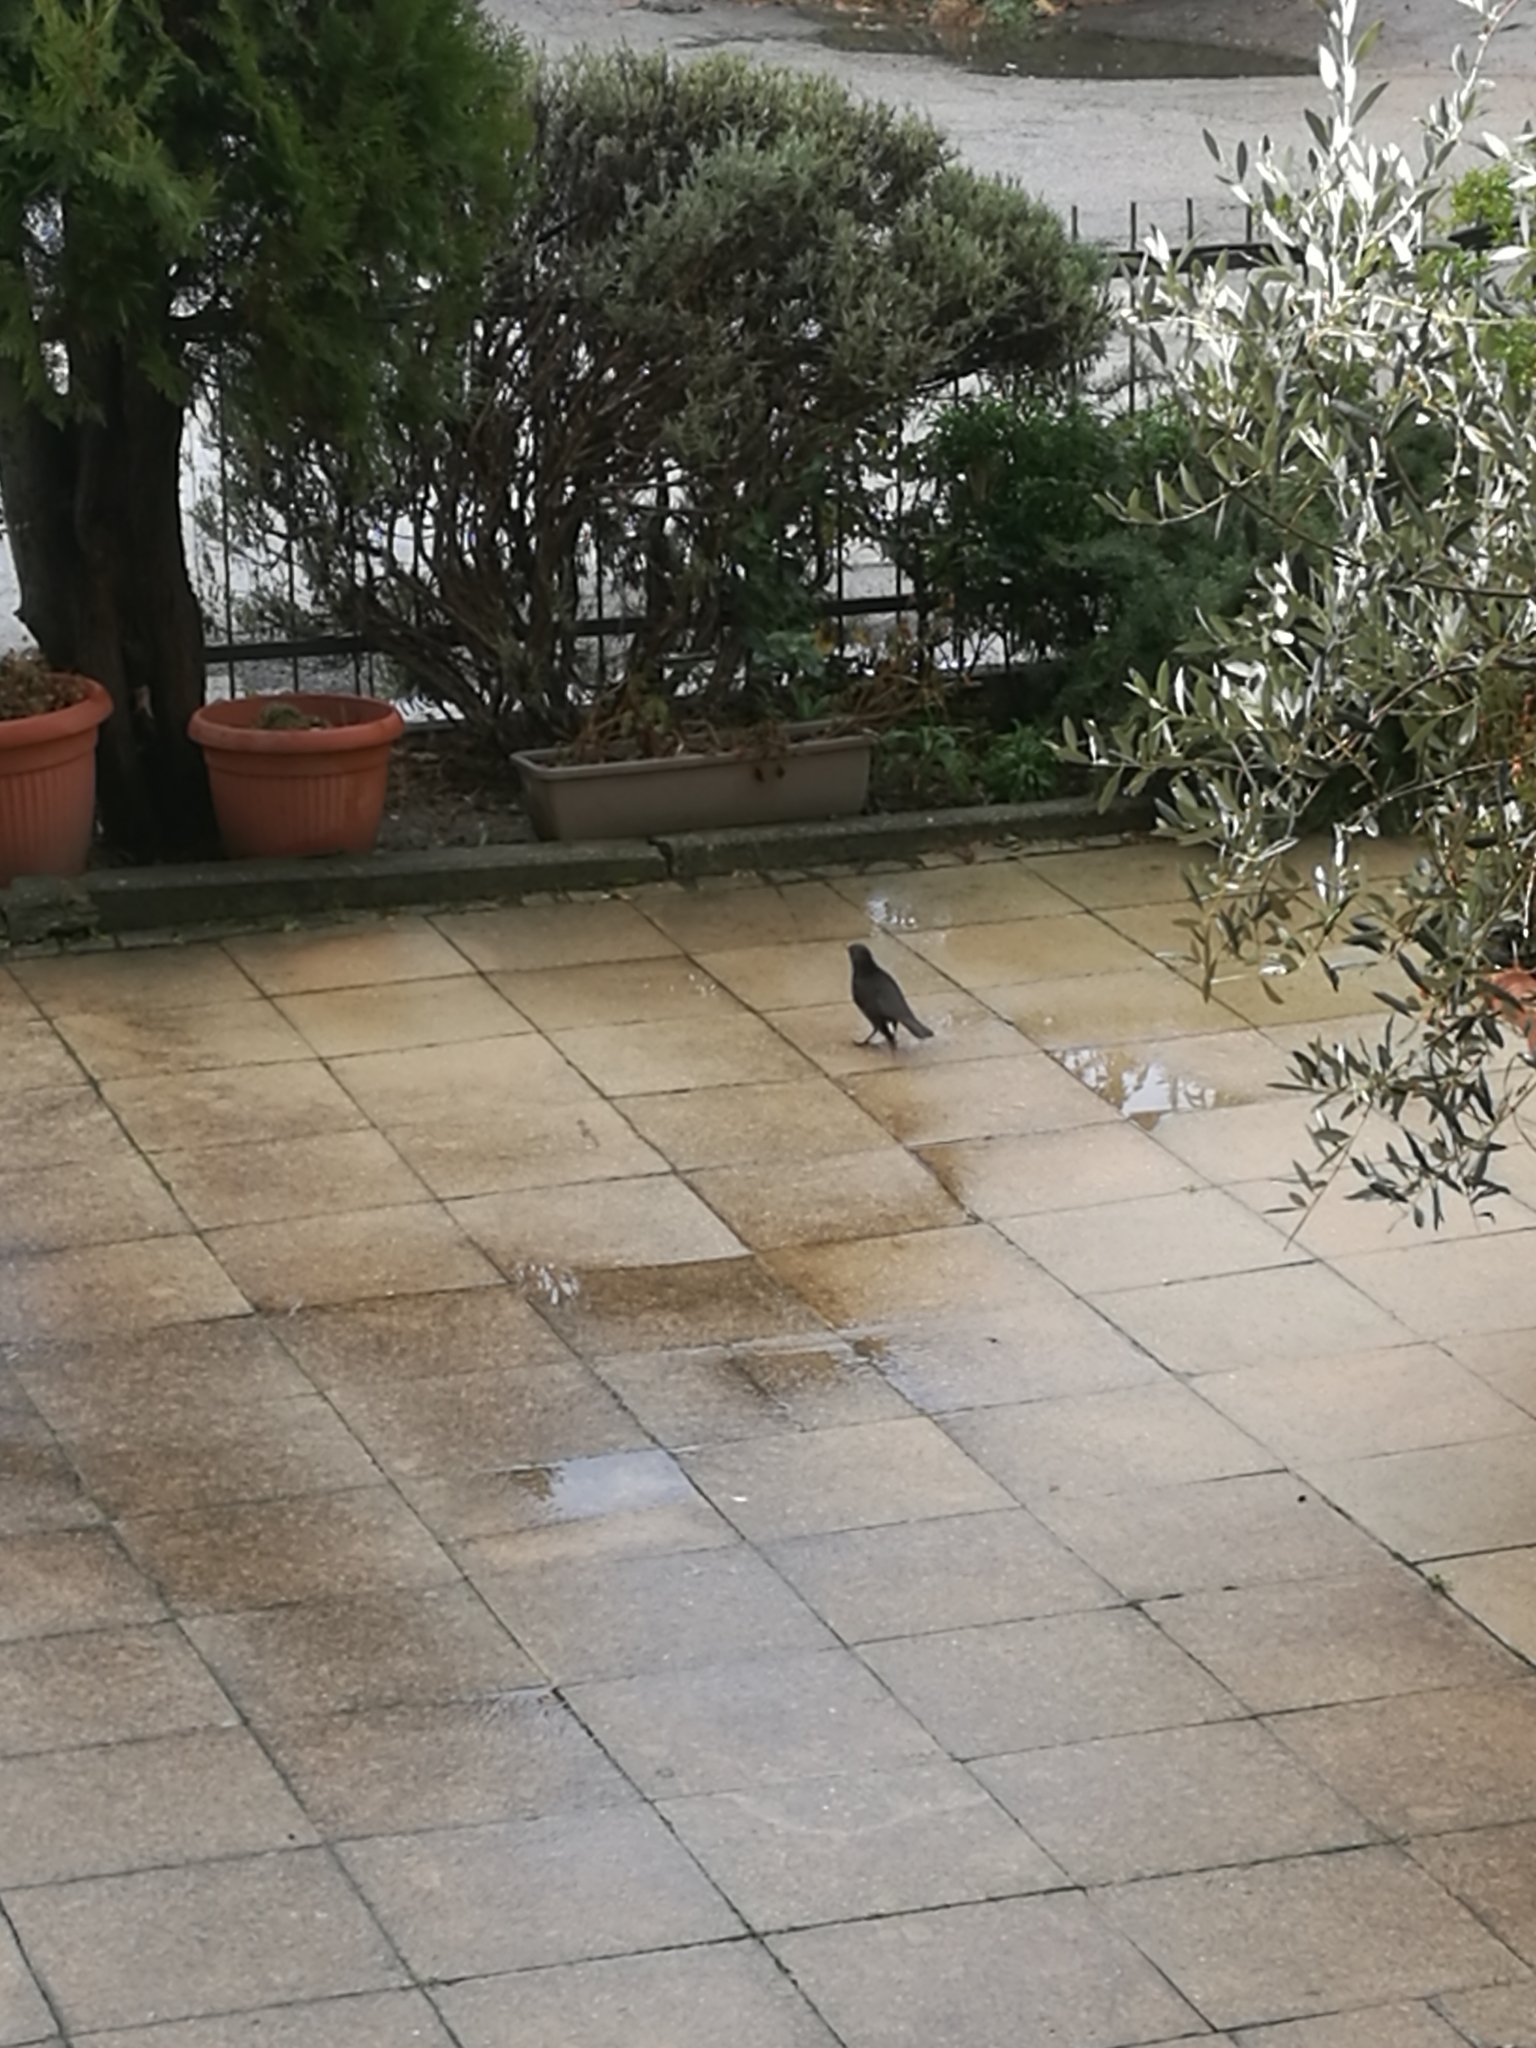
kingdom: Animalia
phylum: Chordata
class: Aves
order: Passeriformes
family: Turdidae
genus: Turdus
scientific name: Turdus merula
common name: Common blackbird
